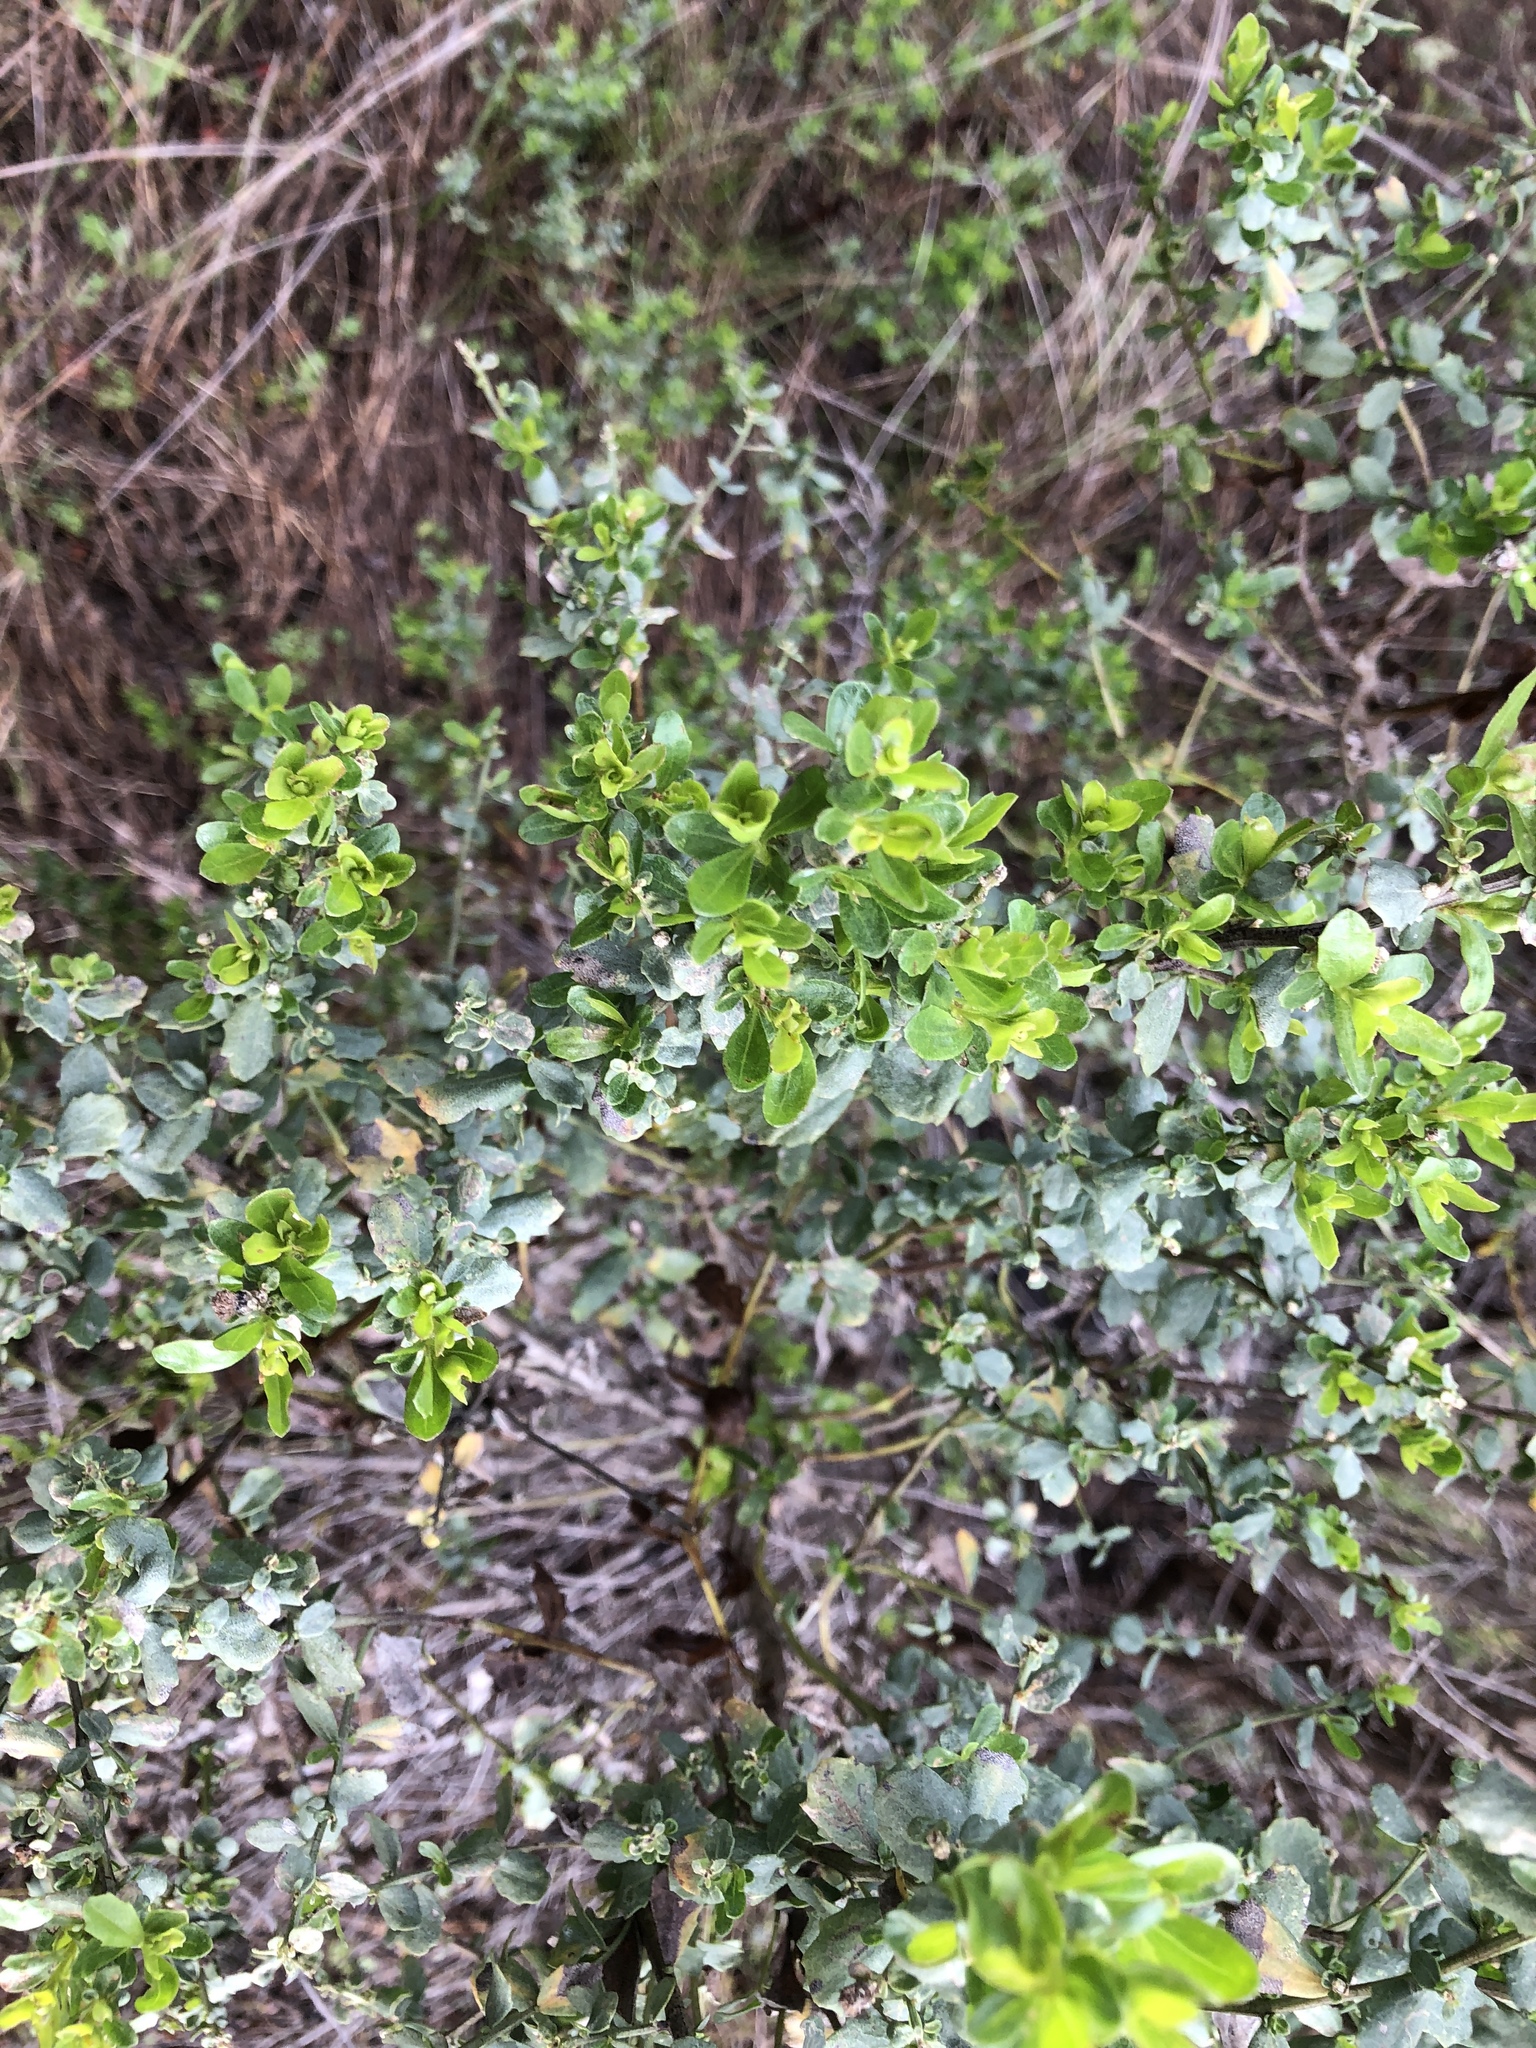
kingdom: Plantae
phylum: Tracheophyta
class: Magnoliopsida
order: Asterales
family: Asteraceae
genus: Baccharis
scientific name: Baccharis pilularis
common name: Coyotebrush
